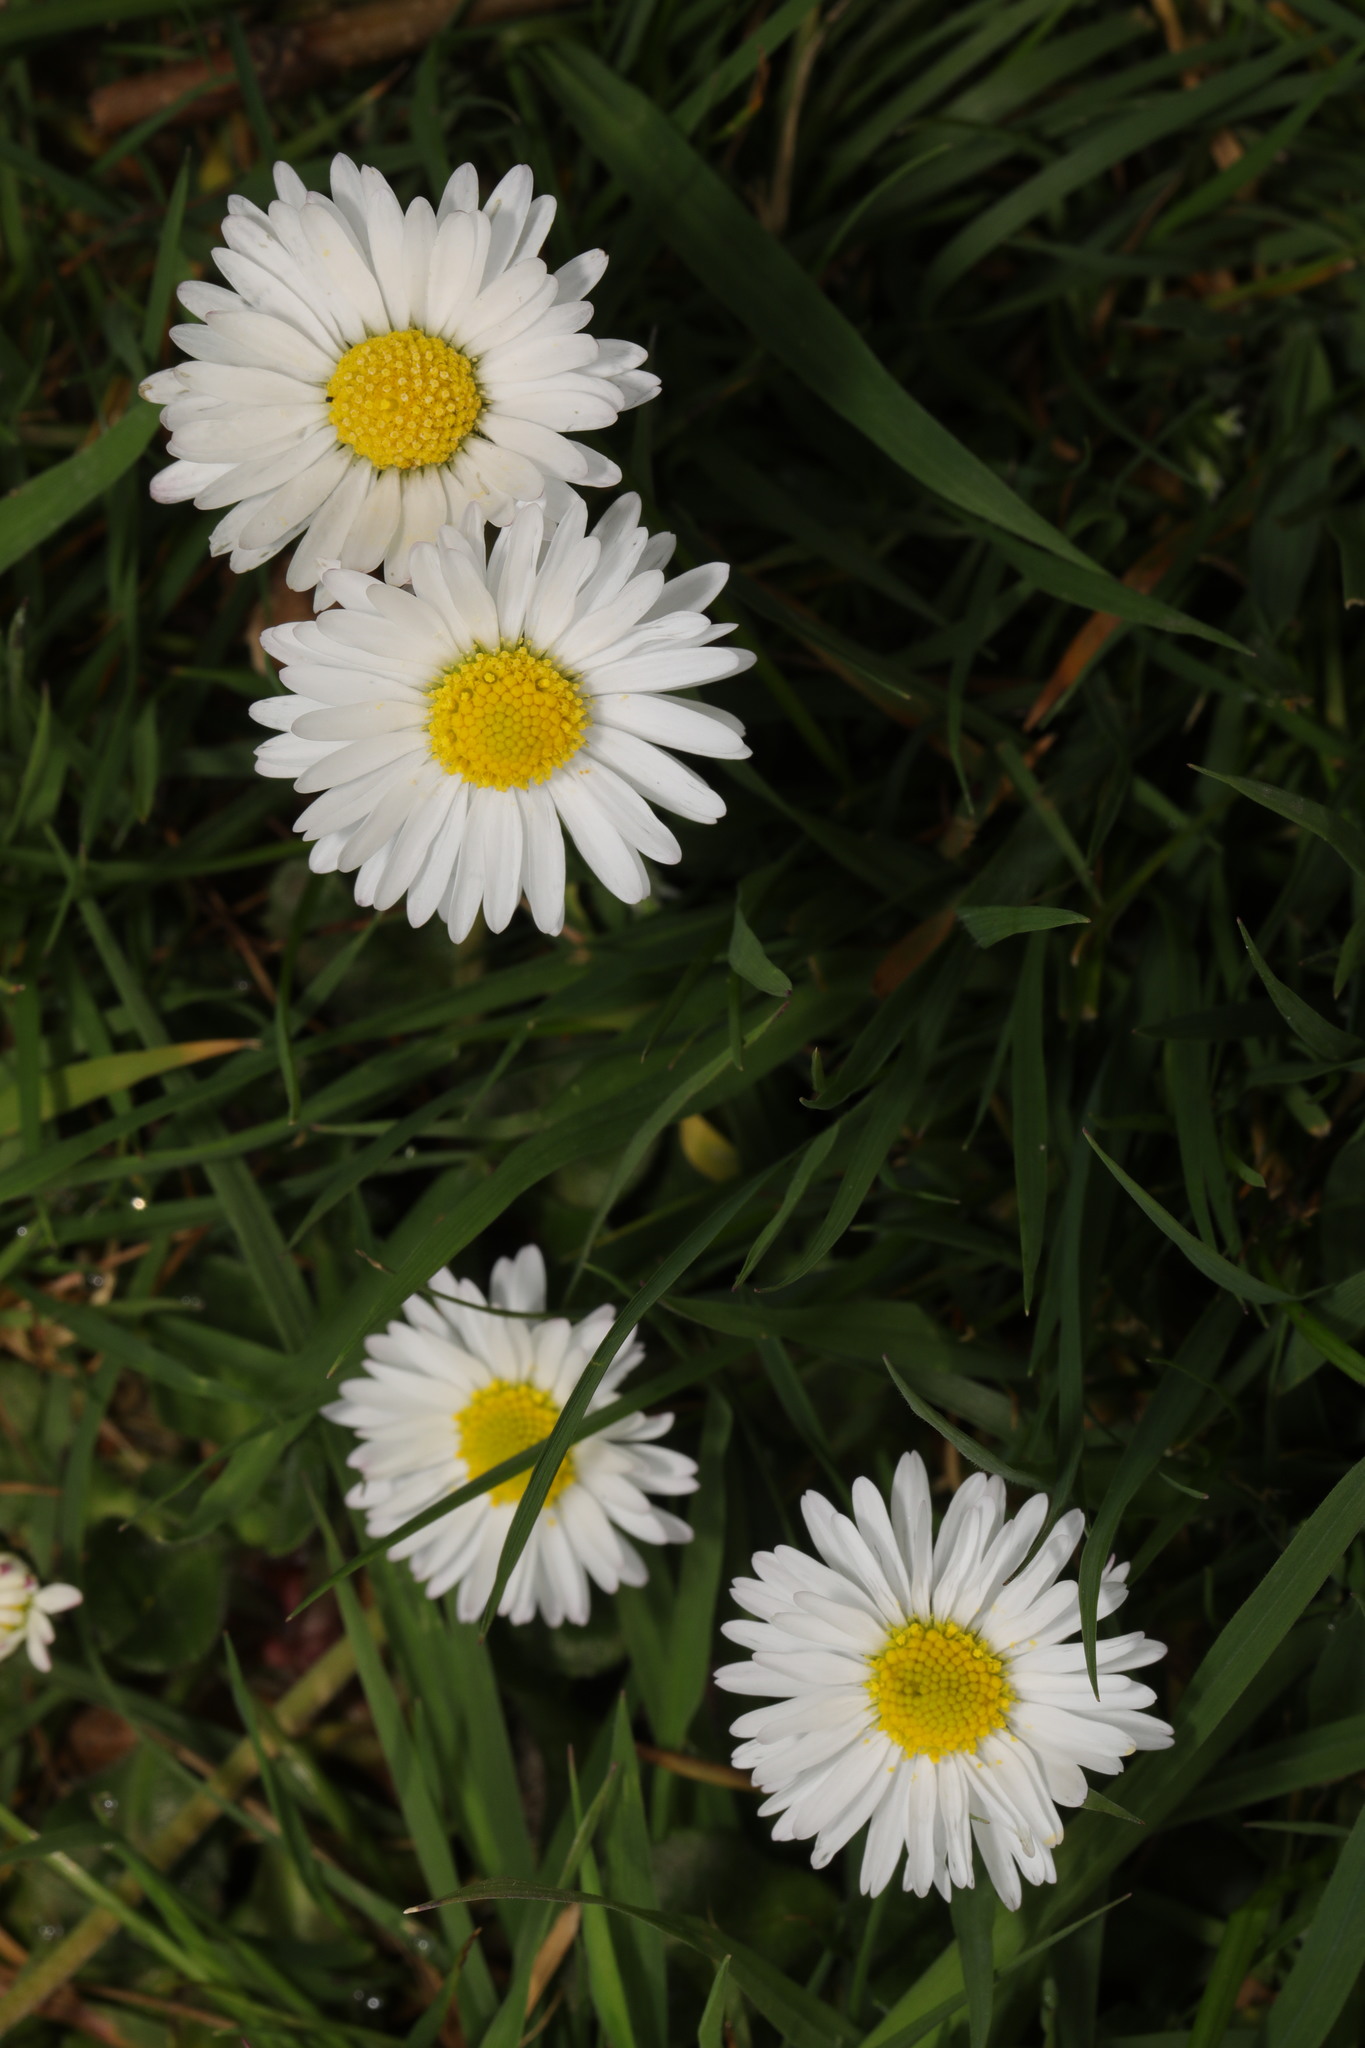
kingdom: Plantae
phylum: Tracheophyta
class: Magnoliopsida
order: Asterales
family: Asteraceae
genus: Bellis
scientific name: Bellis perennis
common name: Lawndaisy
